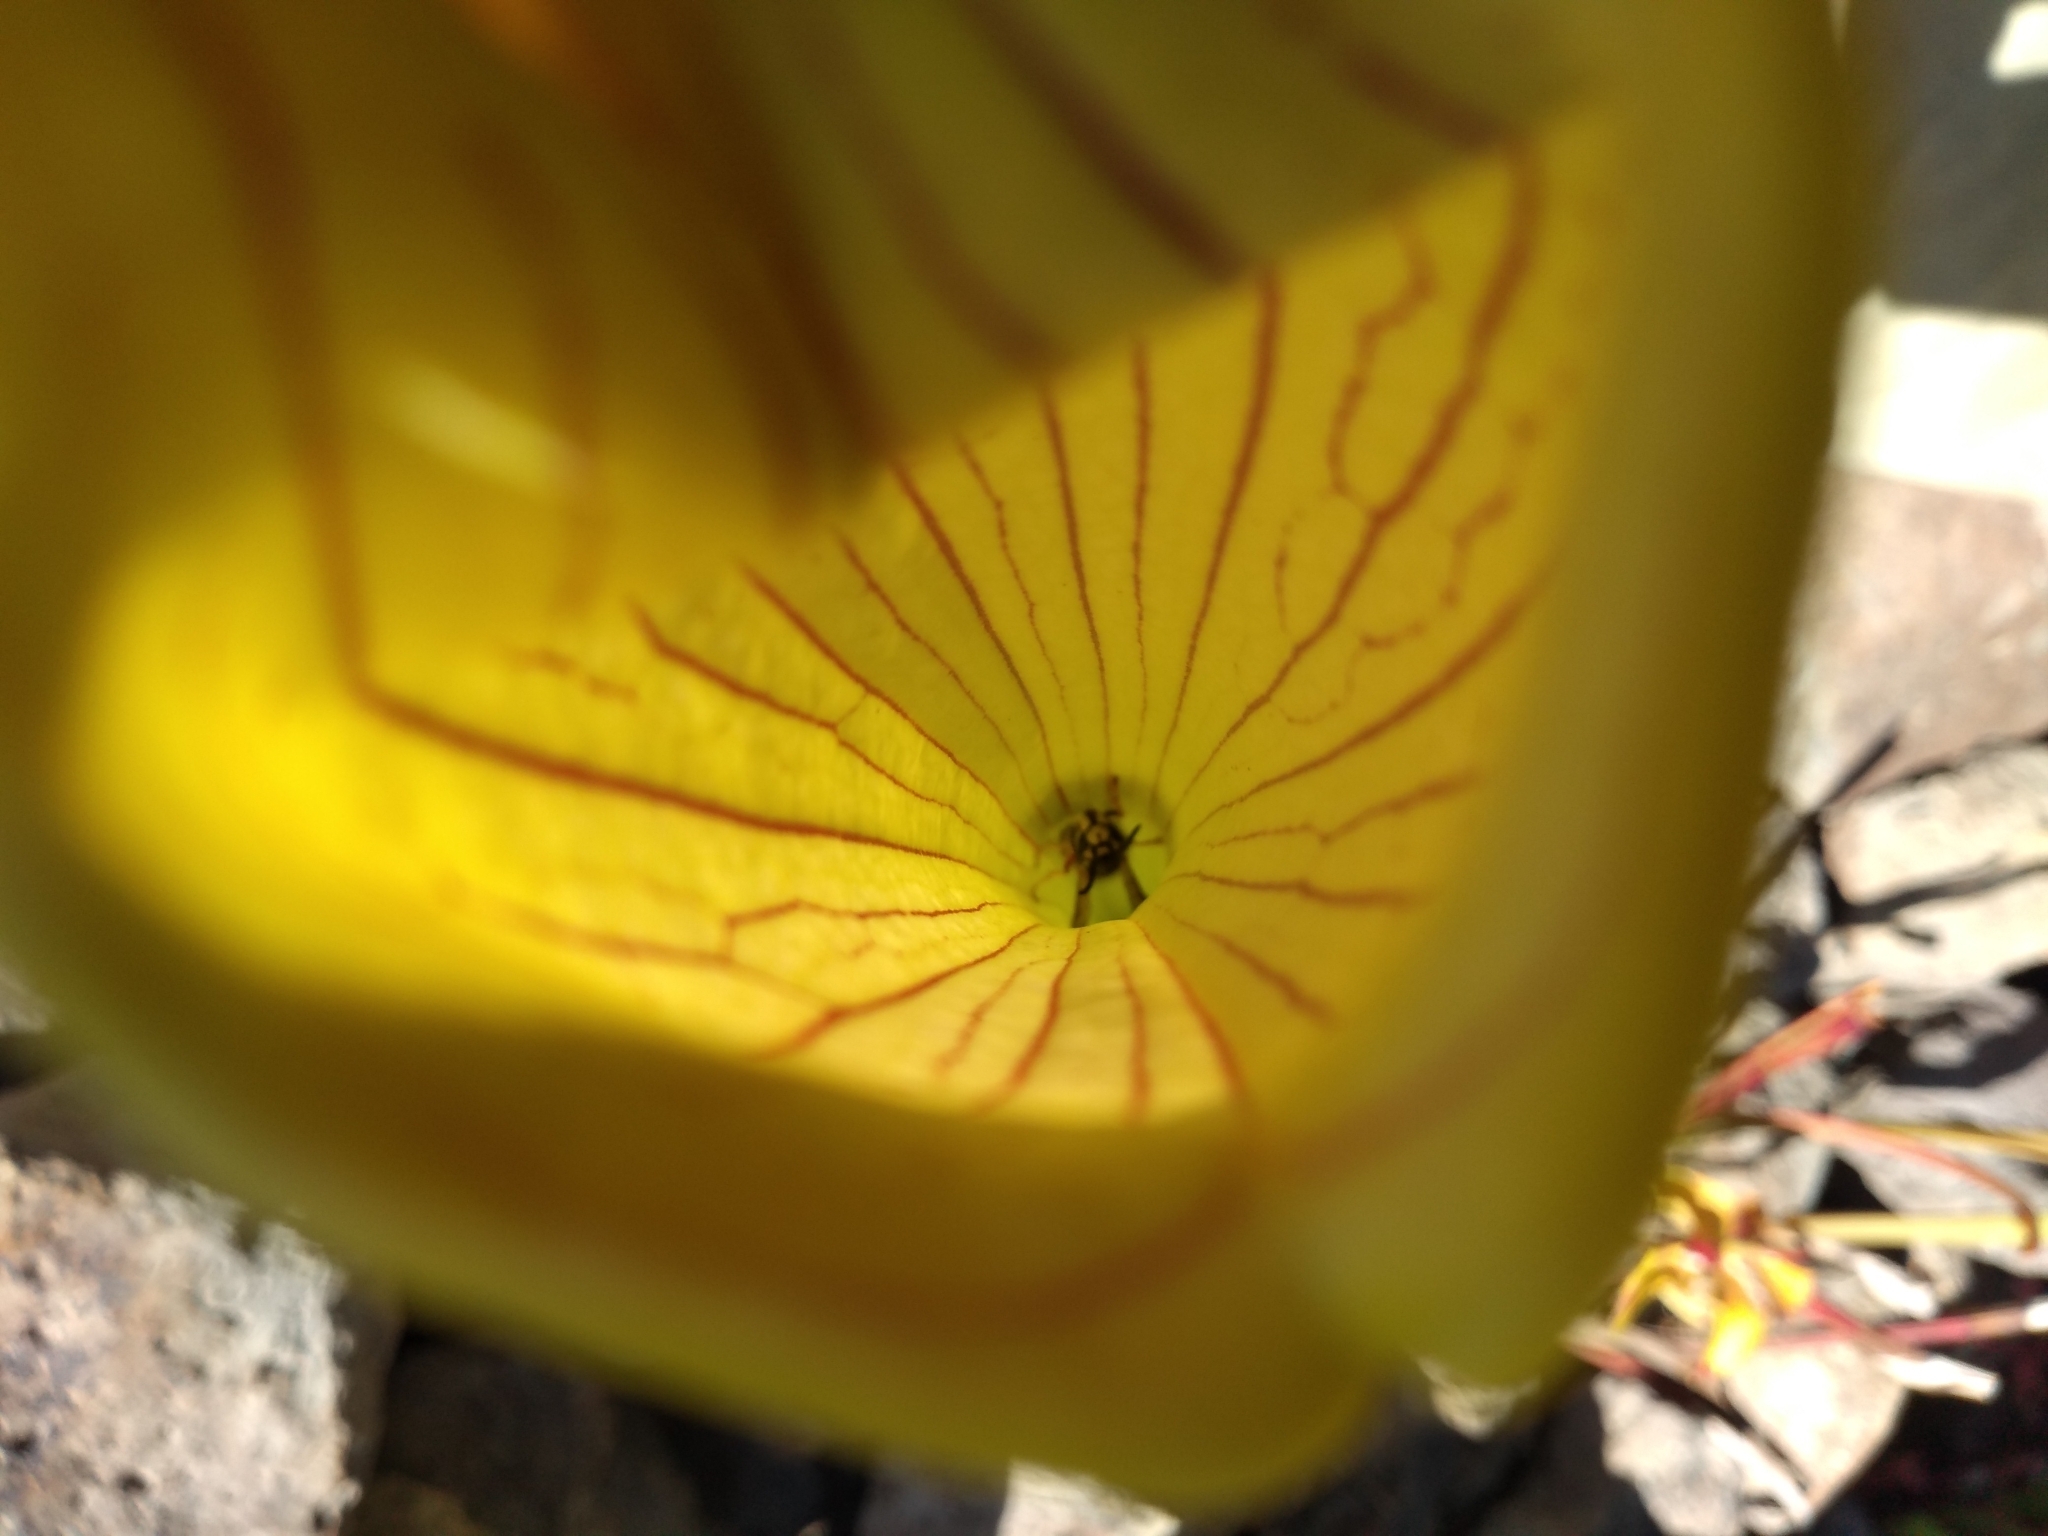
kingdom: Animalia
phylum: Arthropoda
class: Insecta
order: Hymenoptera
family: Vespidae
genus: Vespula
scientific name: Vespula germanica
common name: German wasp
